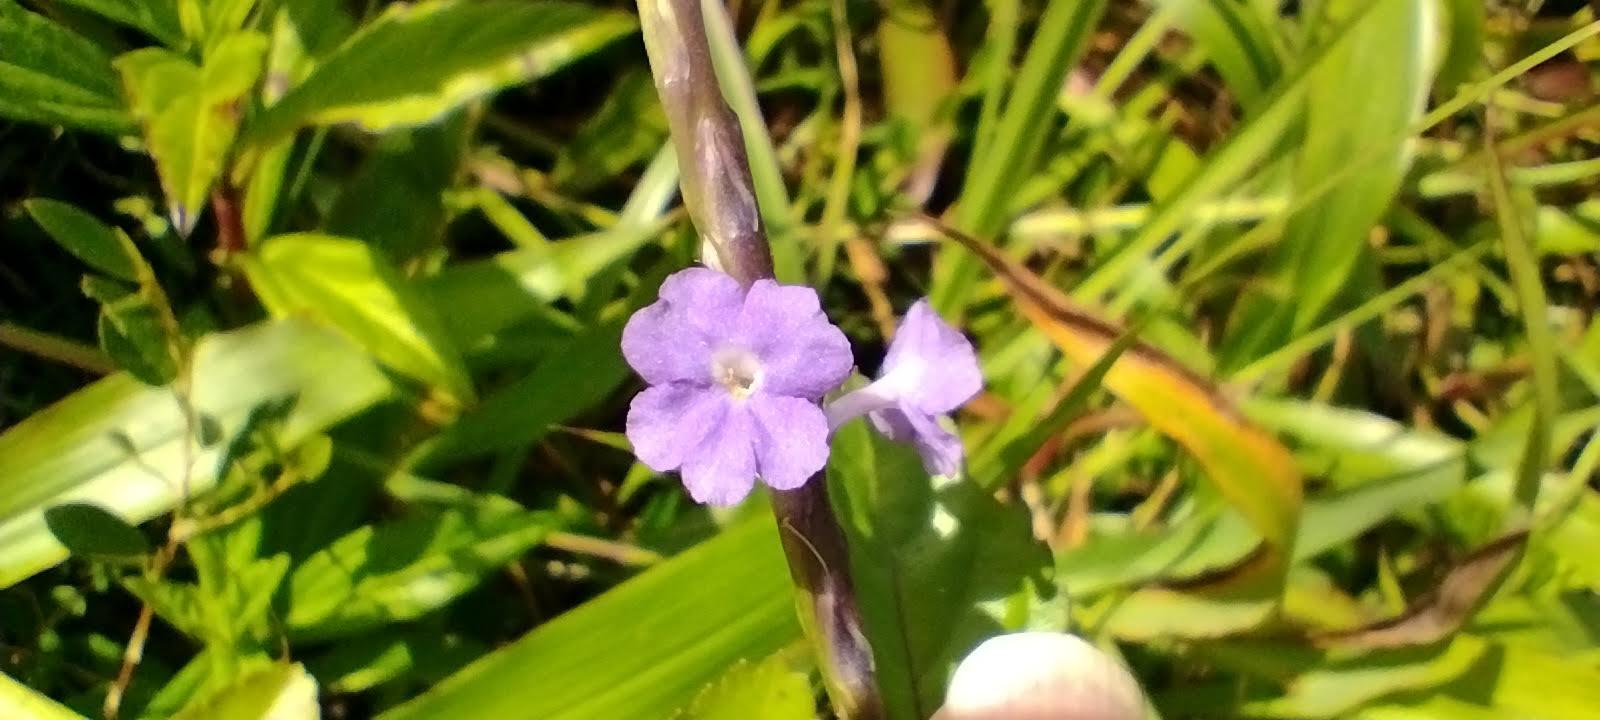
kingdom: Plantae
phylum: Tracheophyta
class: Magnoliopsida
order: Lamiales
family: Verbenaceae
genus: Stachytarpheta
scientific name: Stachytarpheta jamaicensis
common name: Light-blue snakeweed
